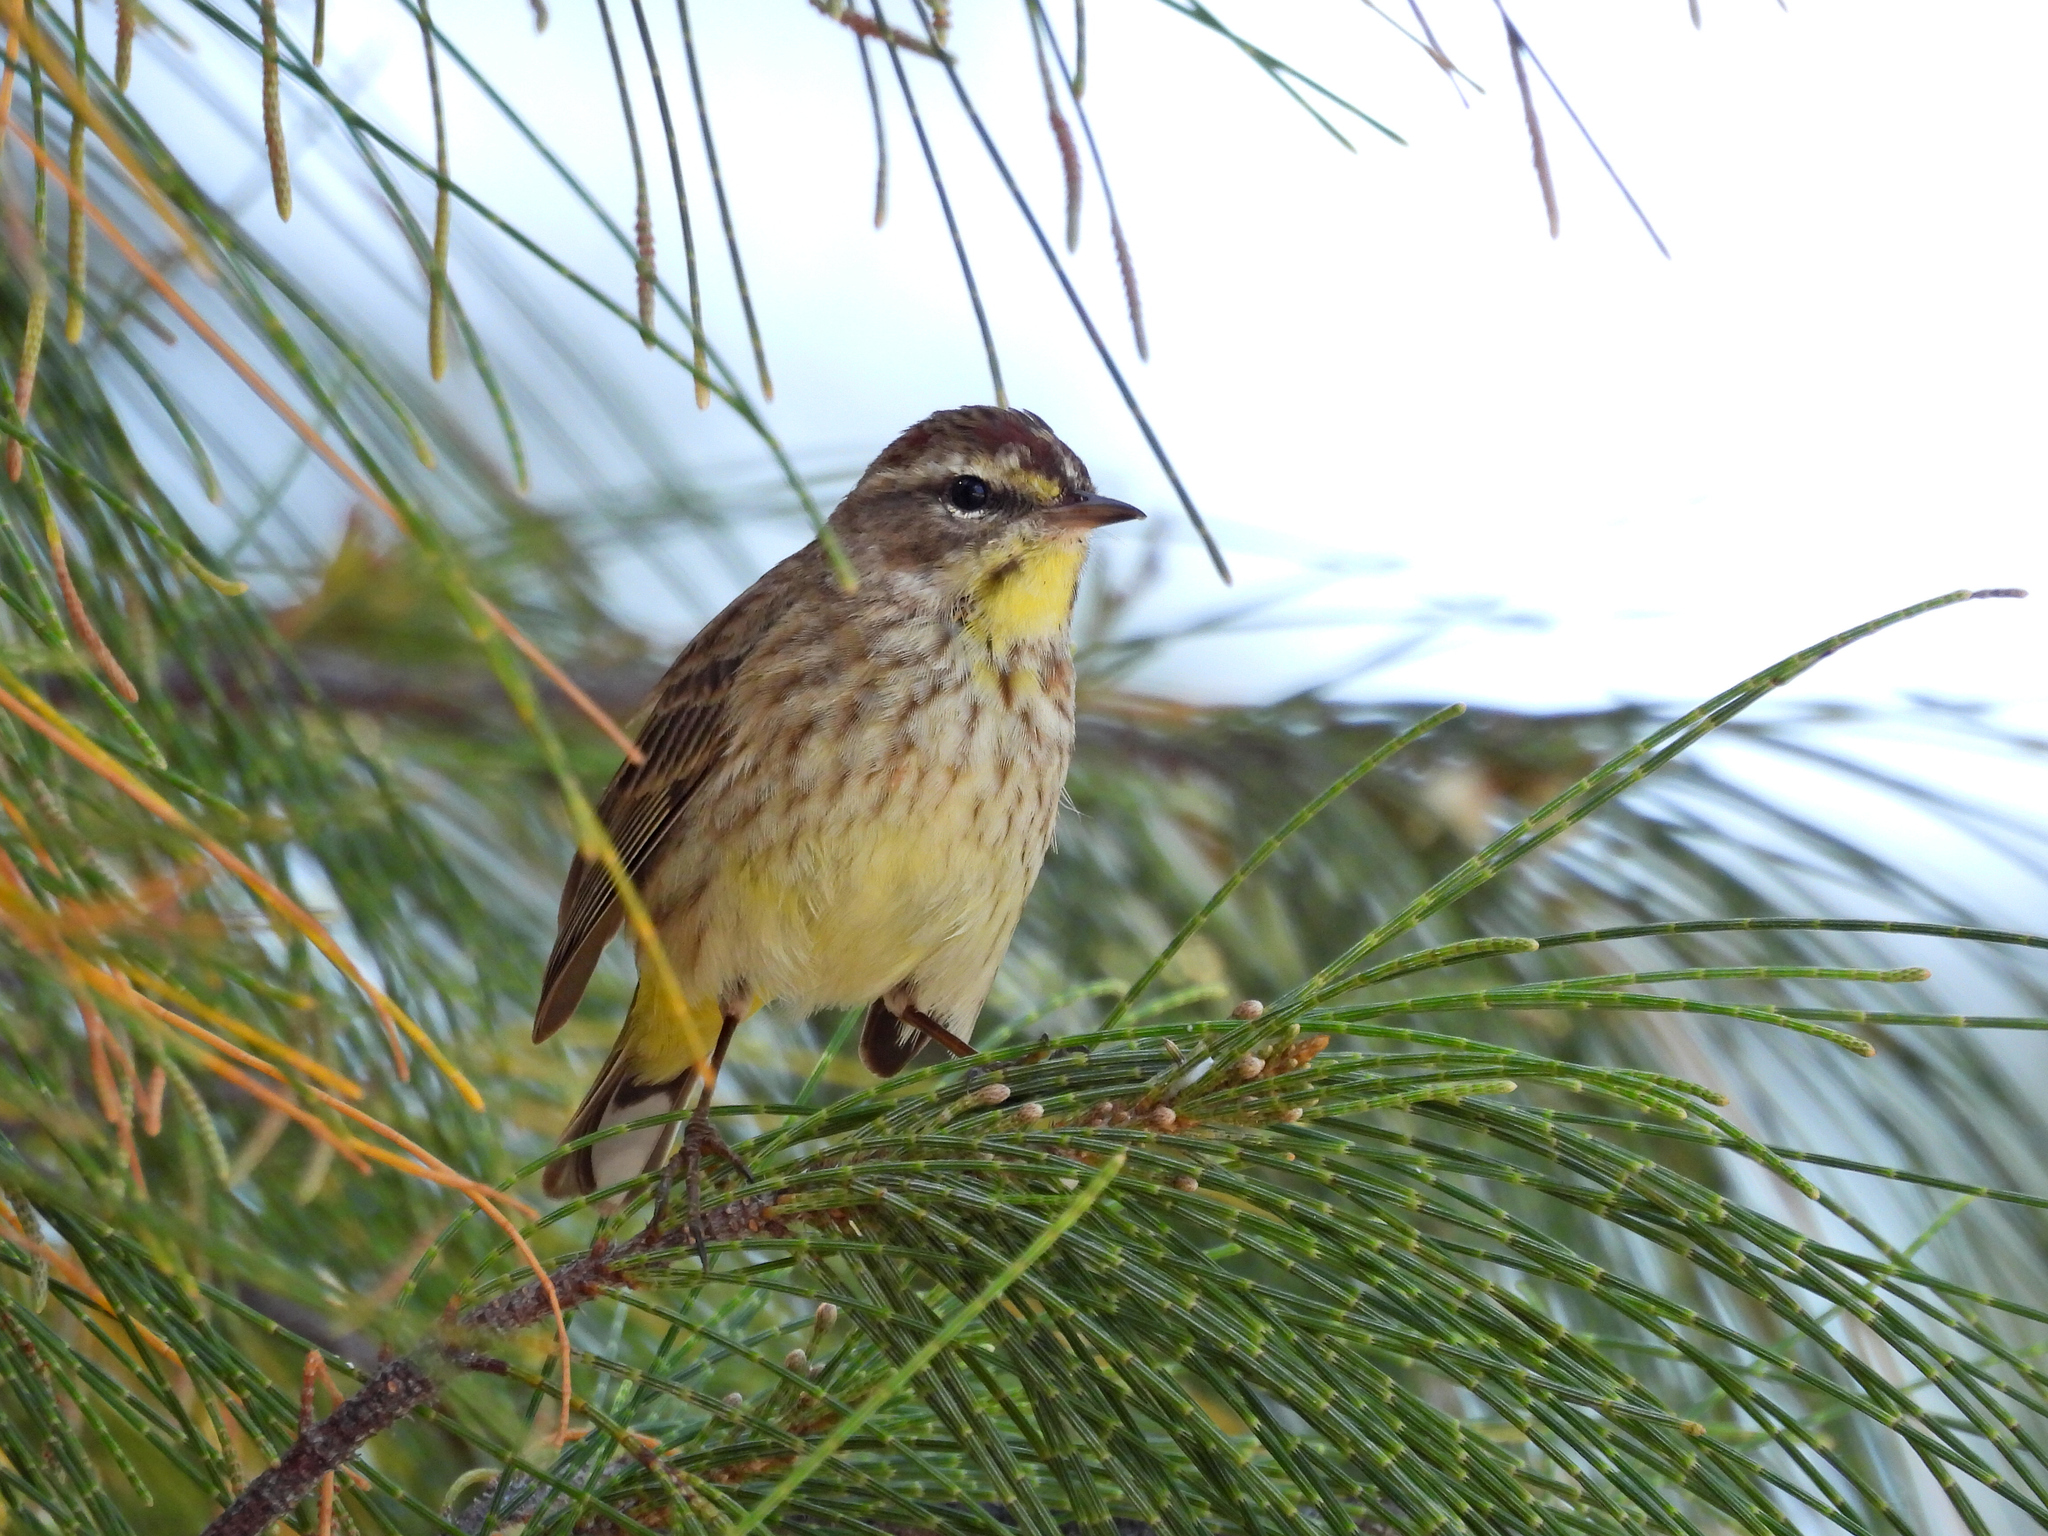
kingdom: Animalia
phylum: Chordata
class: Aves
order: Passeriformes
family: Parulidae
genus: Setophaga
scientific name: Setophaga palmarum
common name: Palm warbler
